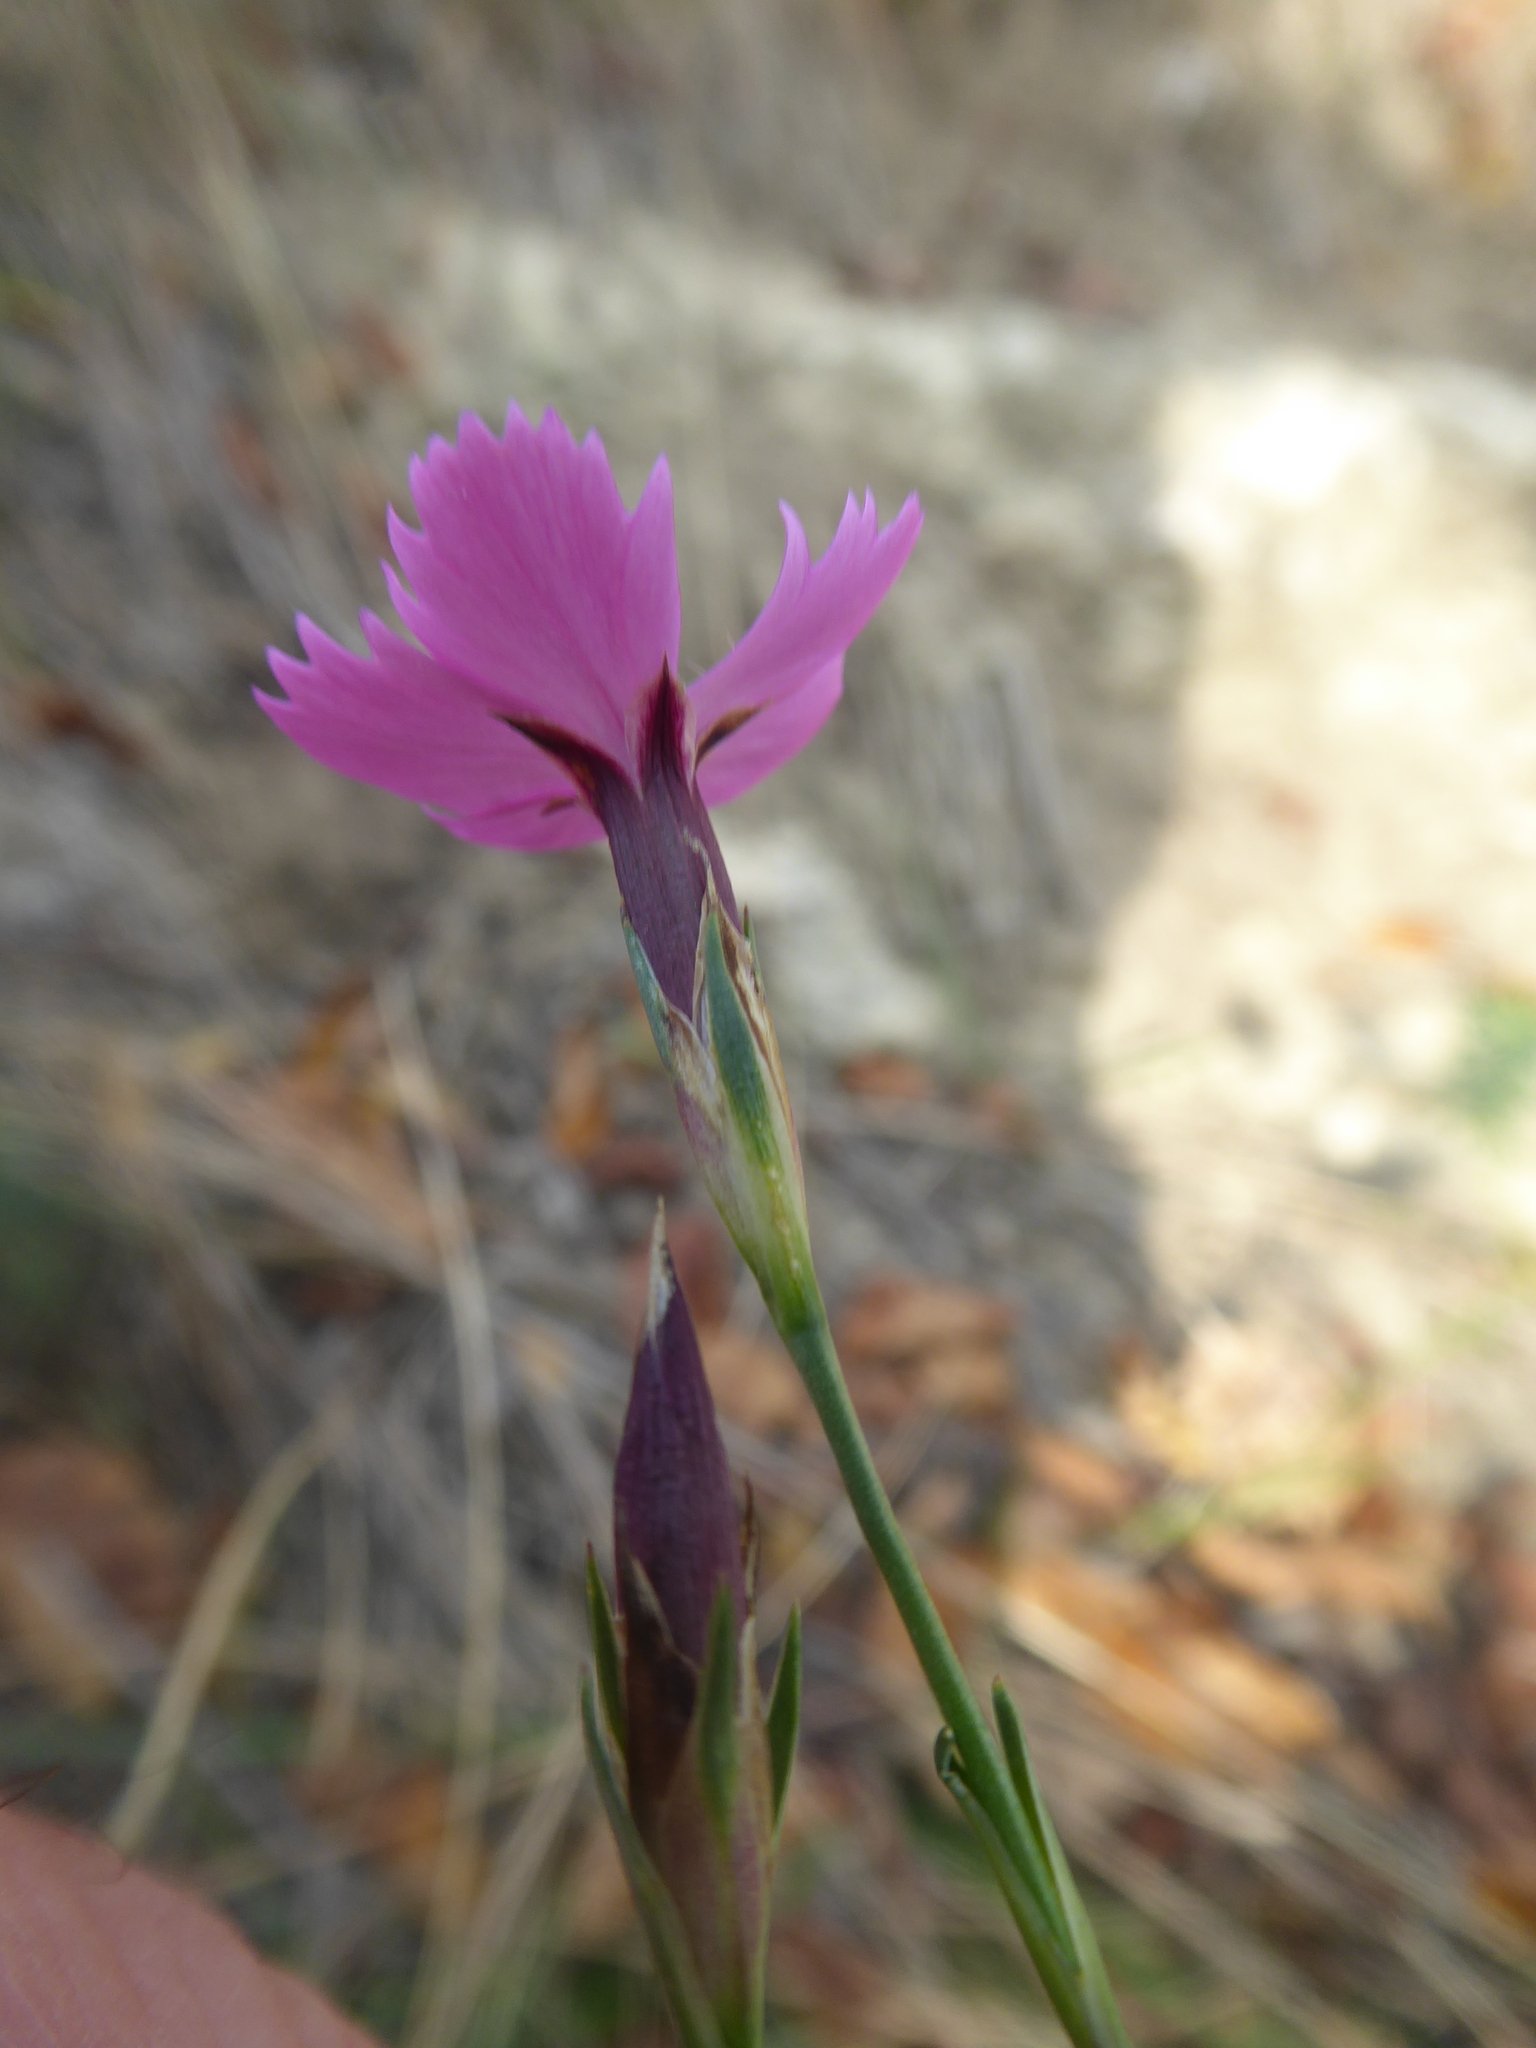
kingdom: Plantae
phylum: Tracheophyta
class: Magnoliopsida
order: Caryophyllales
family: Caryophyllaceae
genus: Dianthus
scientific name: Dianthus carthusianorum
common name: Carthusian pink
